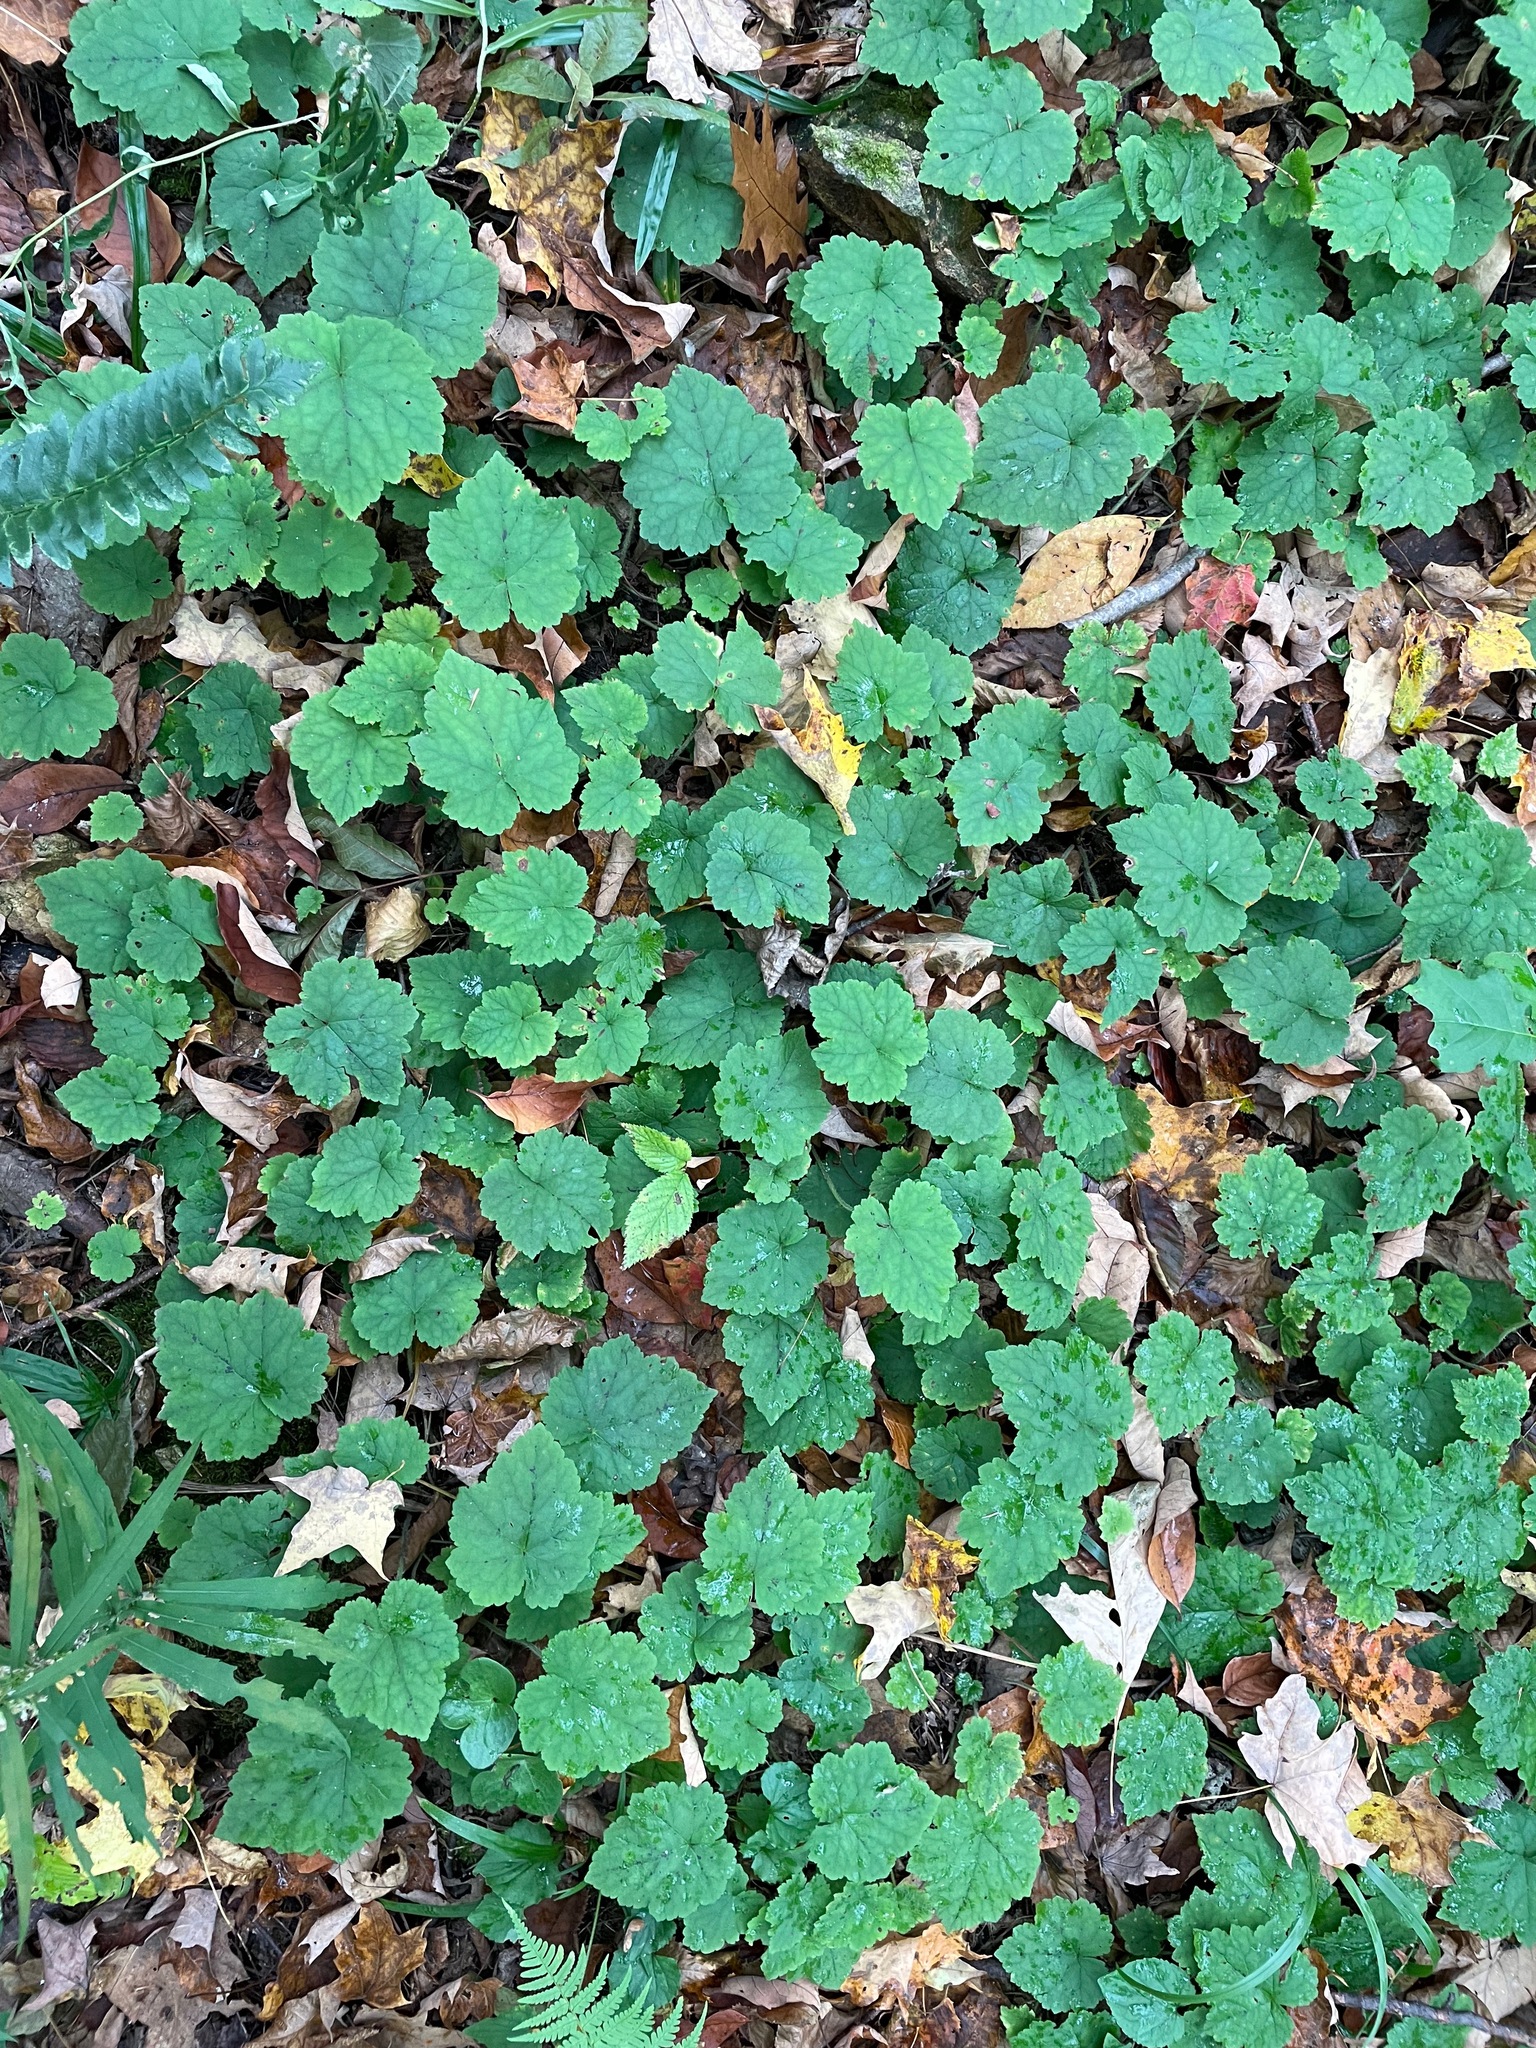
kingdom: Plantae
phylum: Tracheophyta
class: Magnoliopsida
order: Saxifragales
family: Saxifragaceae
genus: Tiarella
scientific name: Tiarella stolonifera
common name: Stoloniferous foamflower
